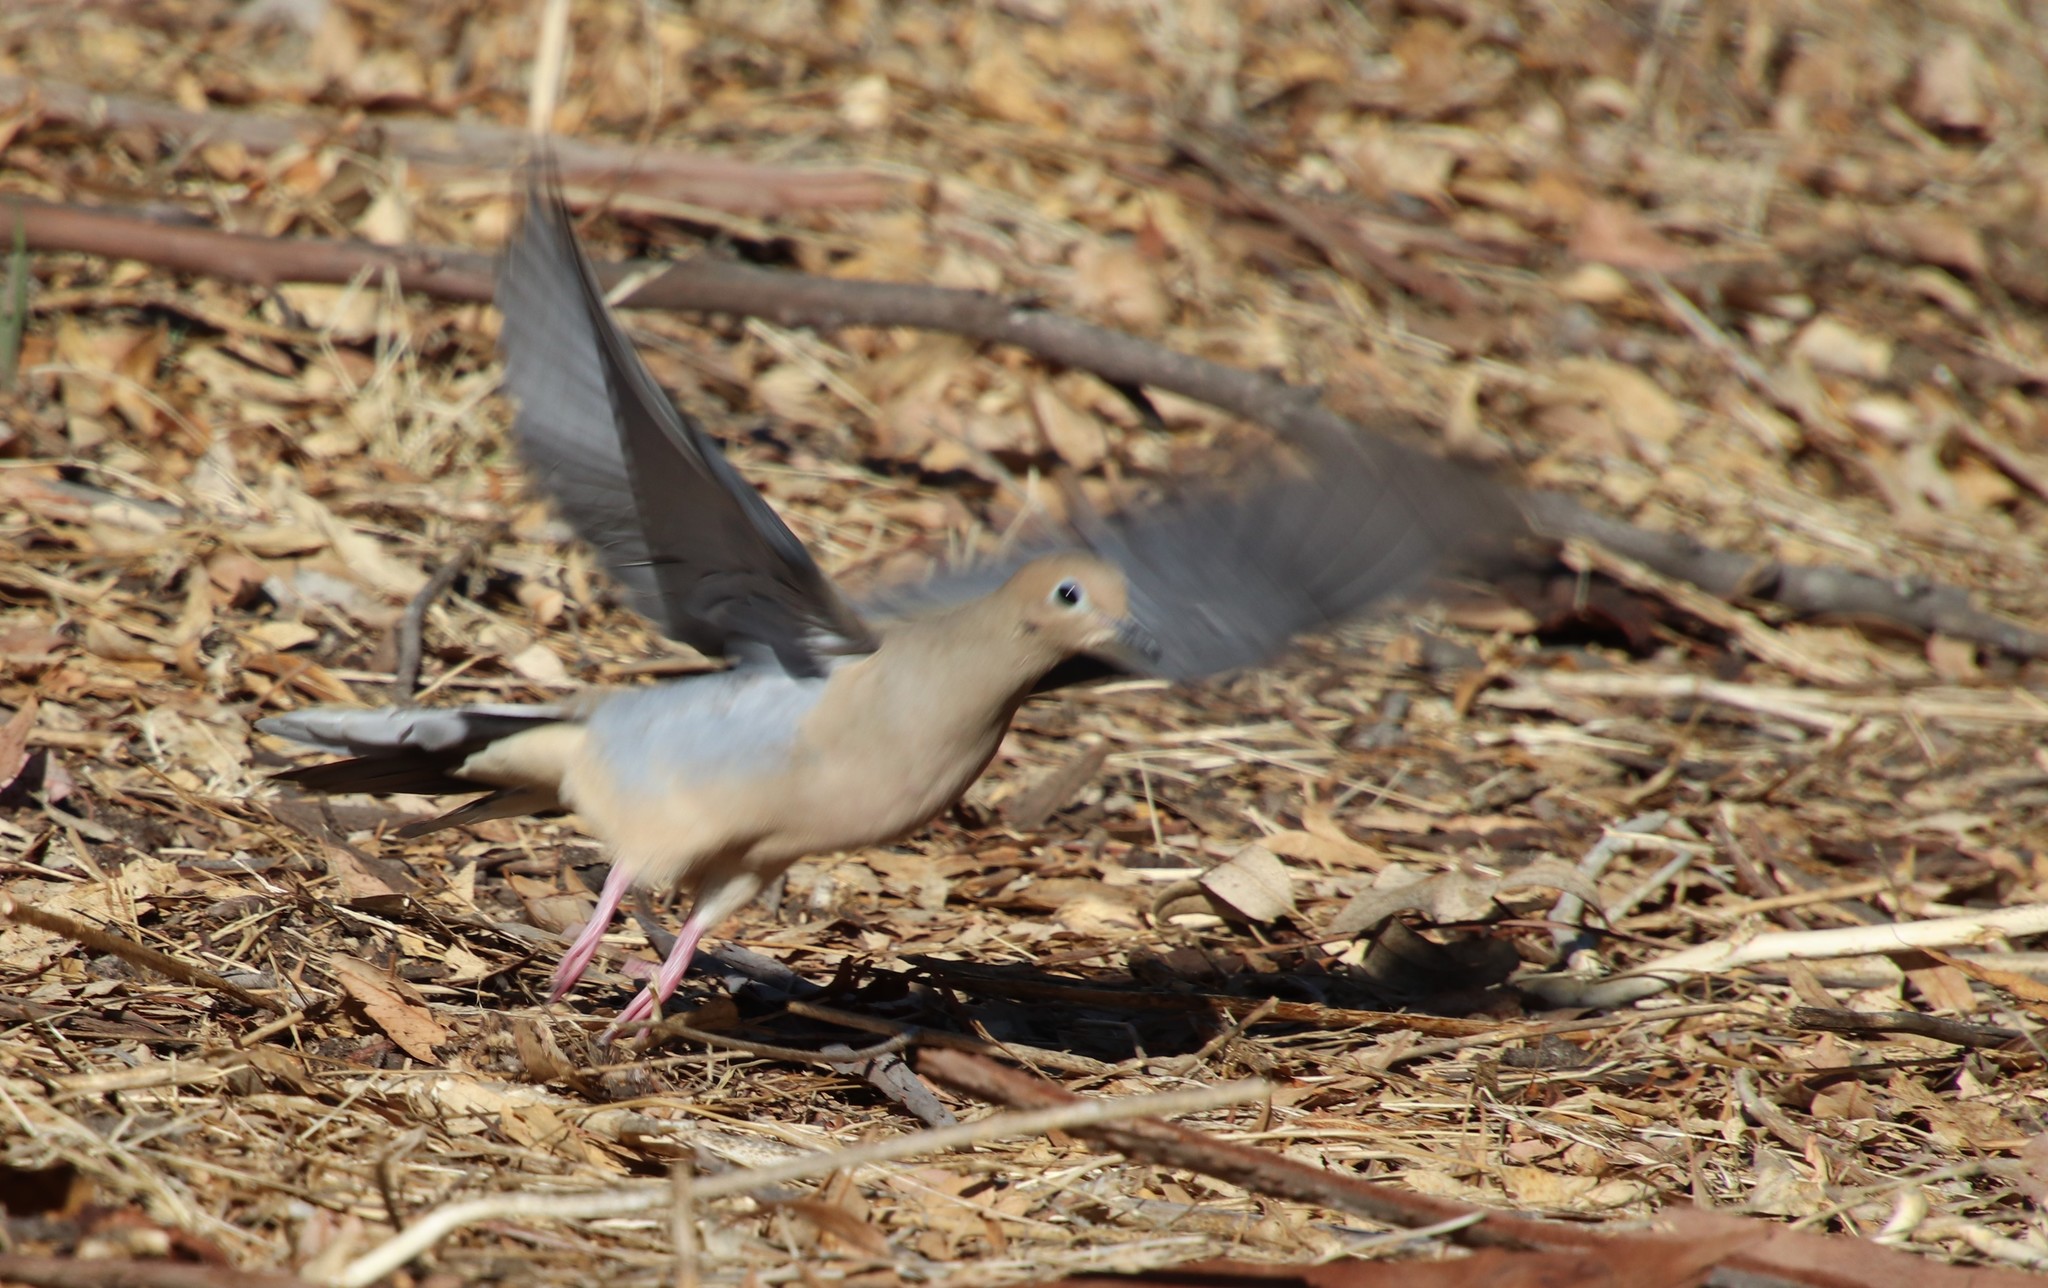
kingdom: Animalia
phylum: Chordata
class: Aves
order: Columbiformes
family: Columbidae
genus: Zenaida
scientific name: Zenaida macroura
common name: Mourning dove
